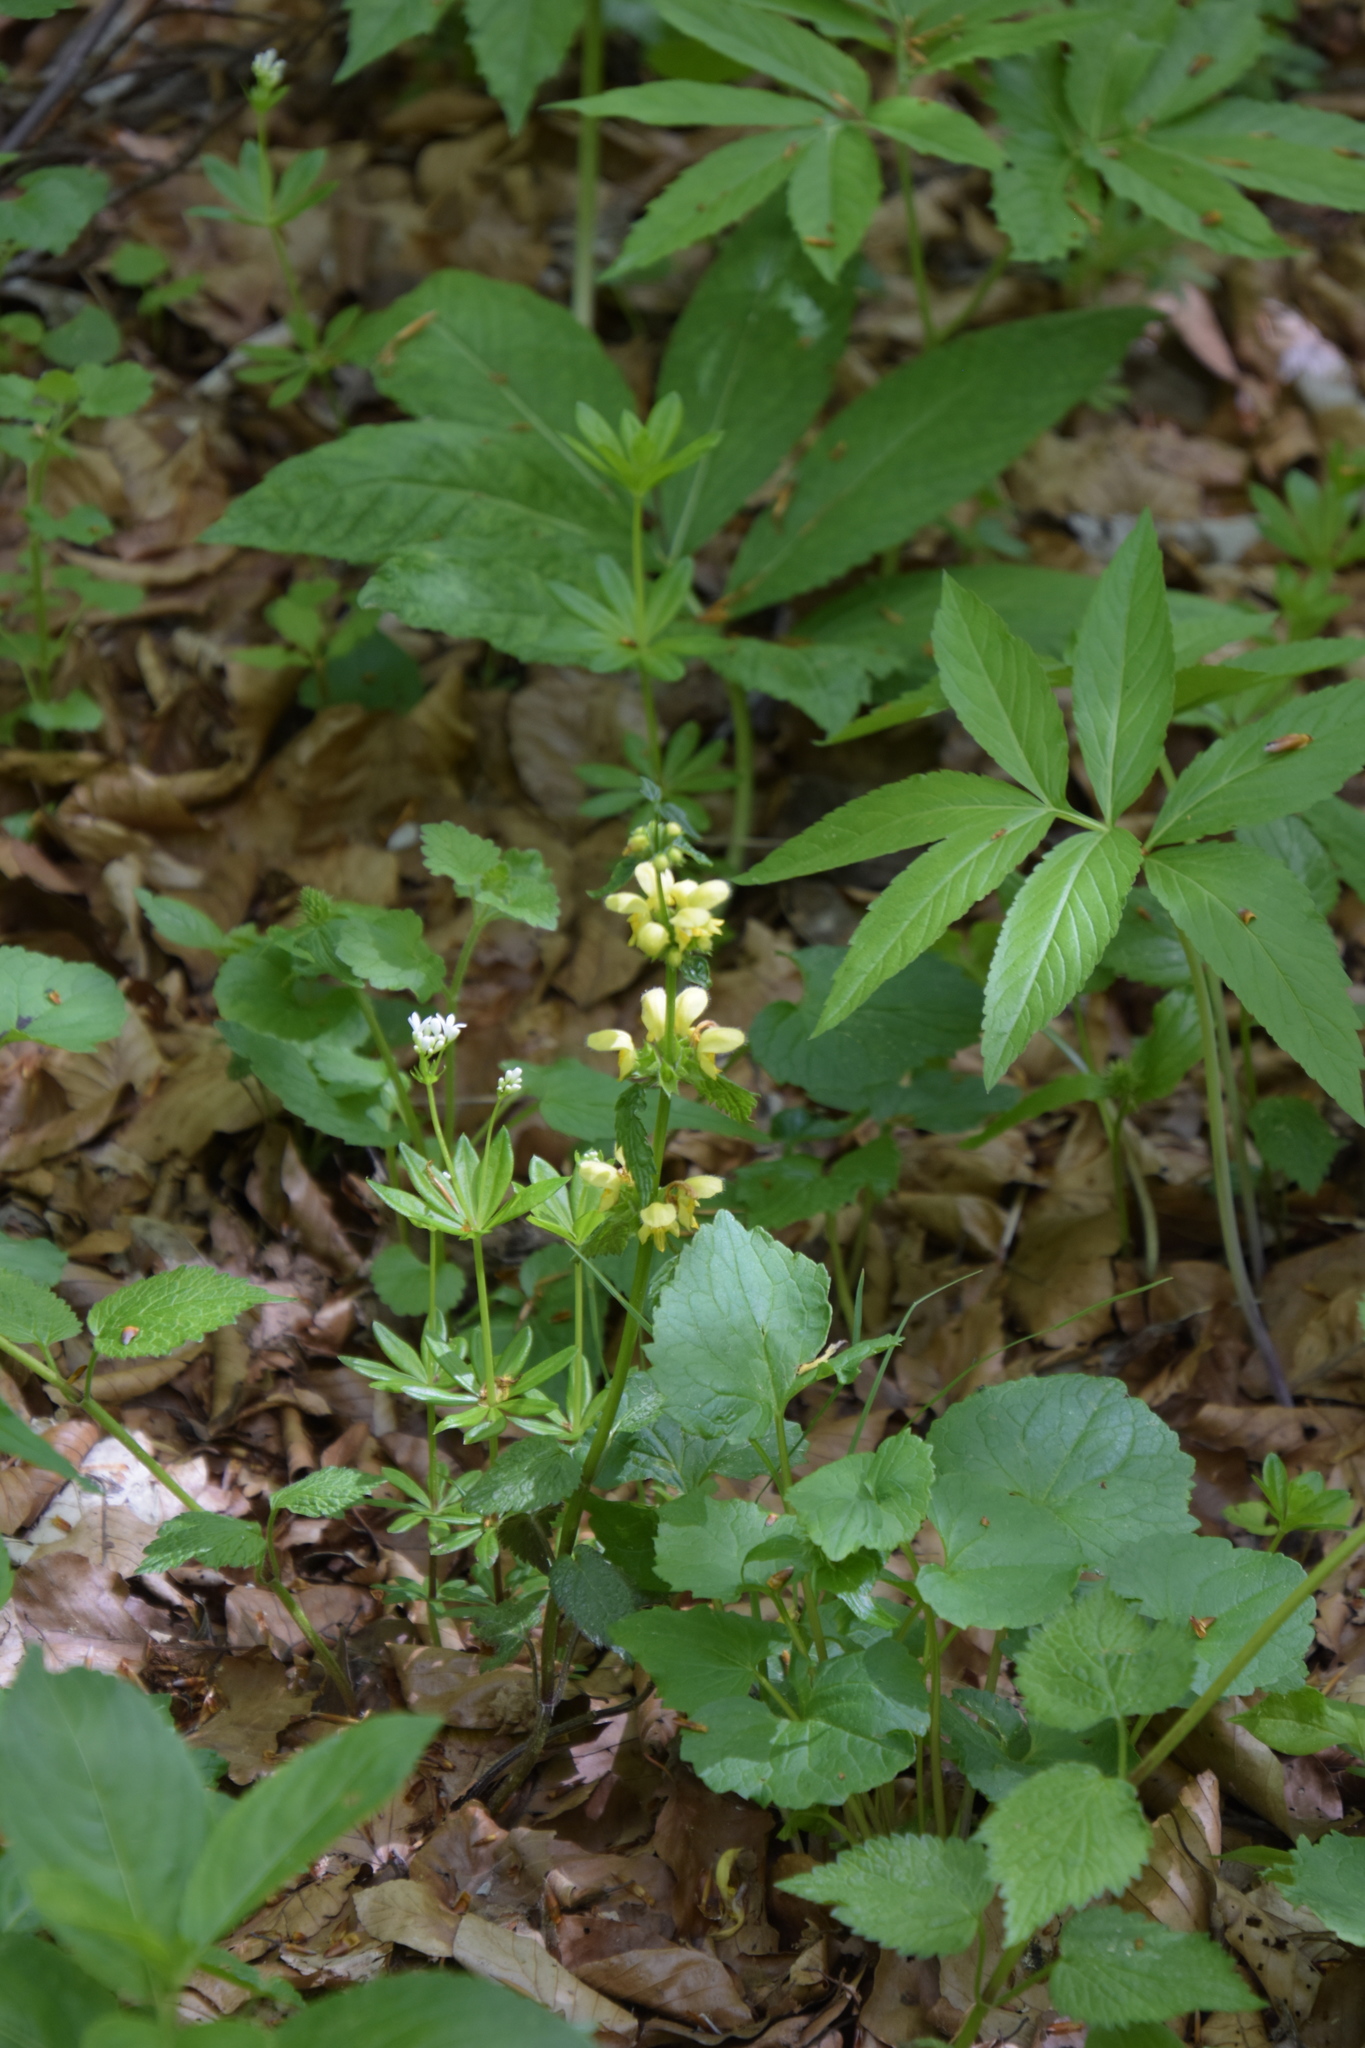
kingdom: Plantae
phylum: Tracheophyta
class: Magnoliopsida
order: Lamiales
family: Lamiaceae
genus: Lamium
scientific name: Lamium galeobdolon
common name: Yellow archangel
